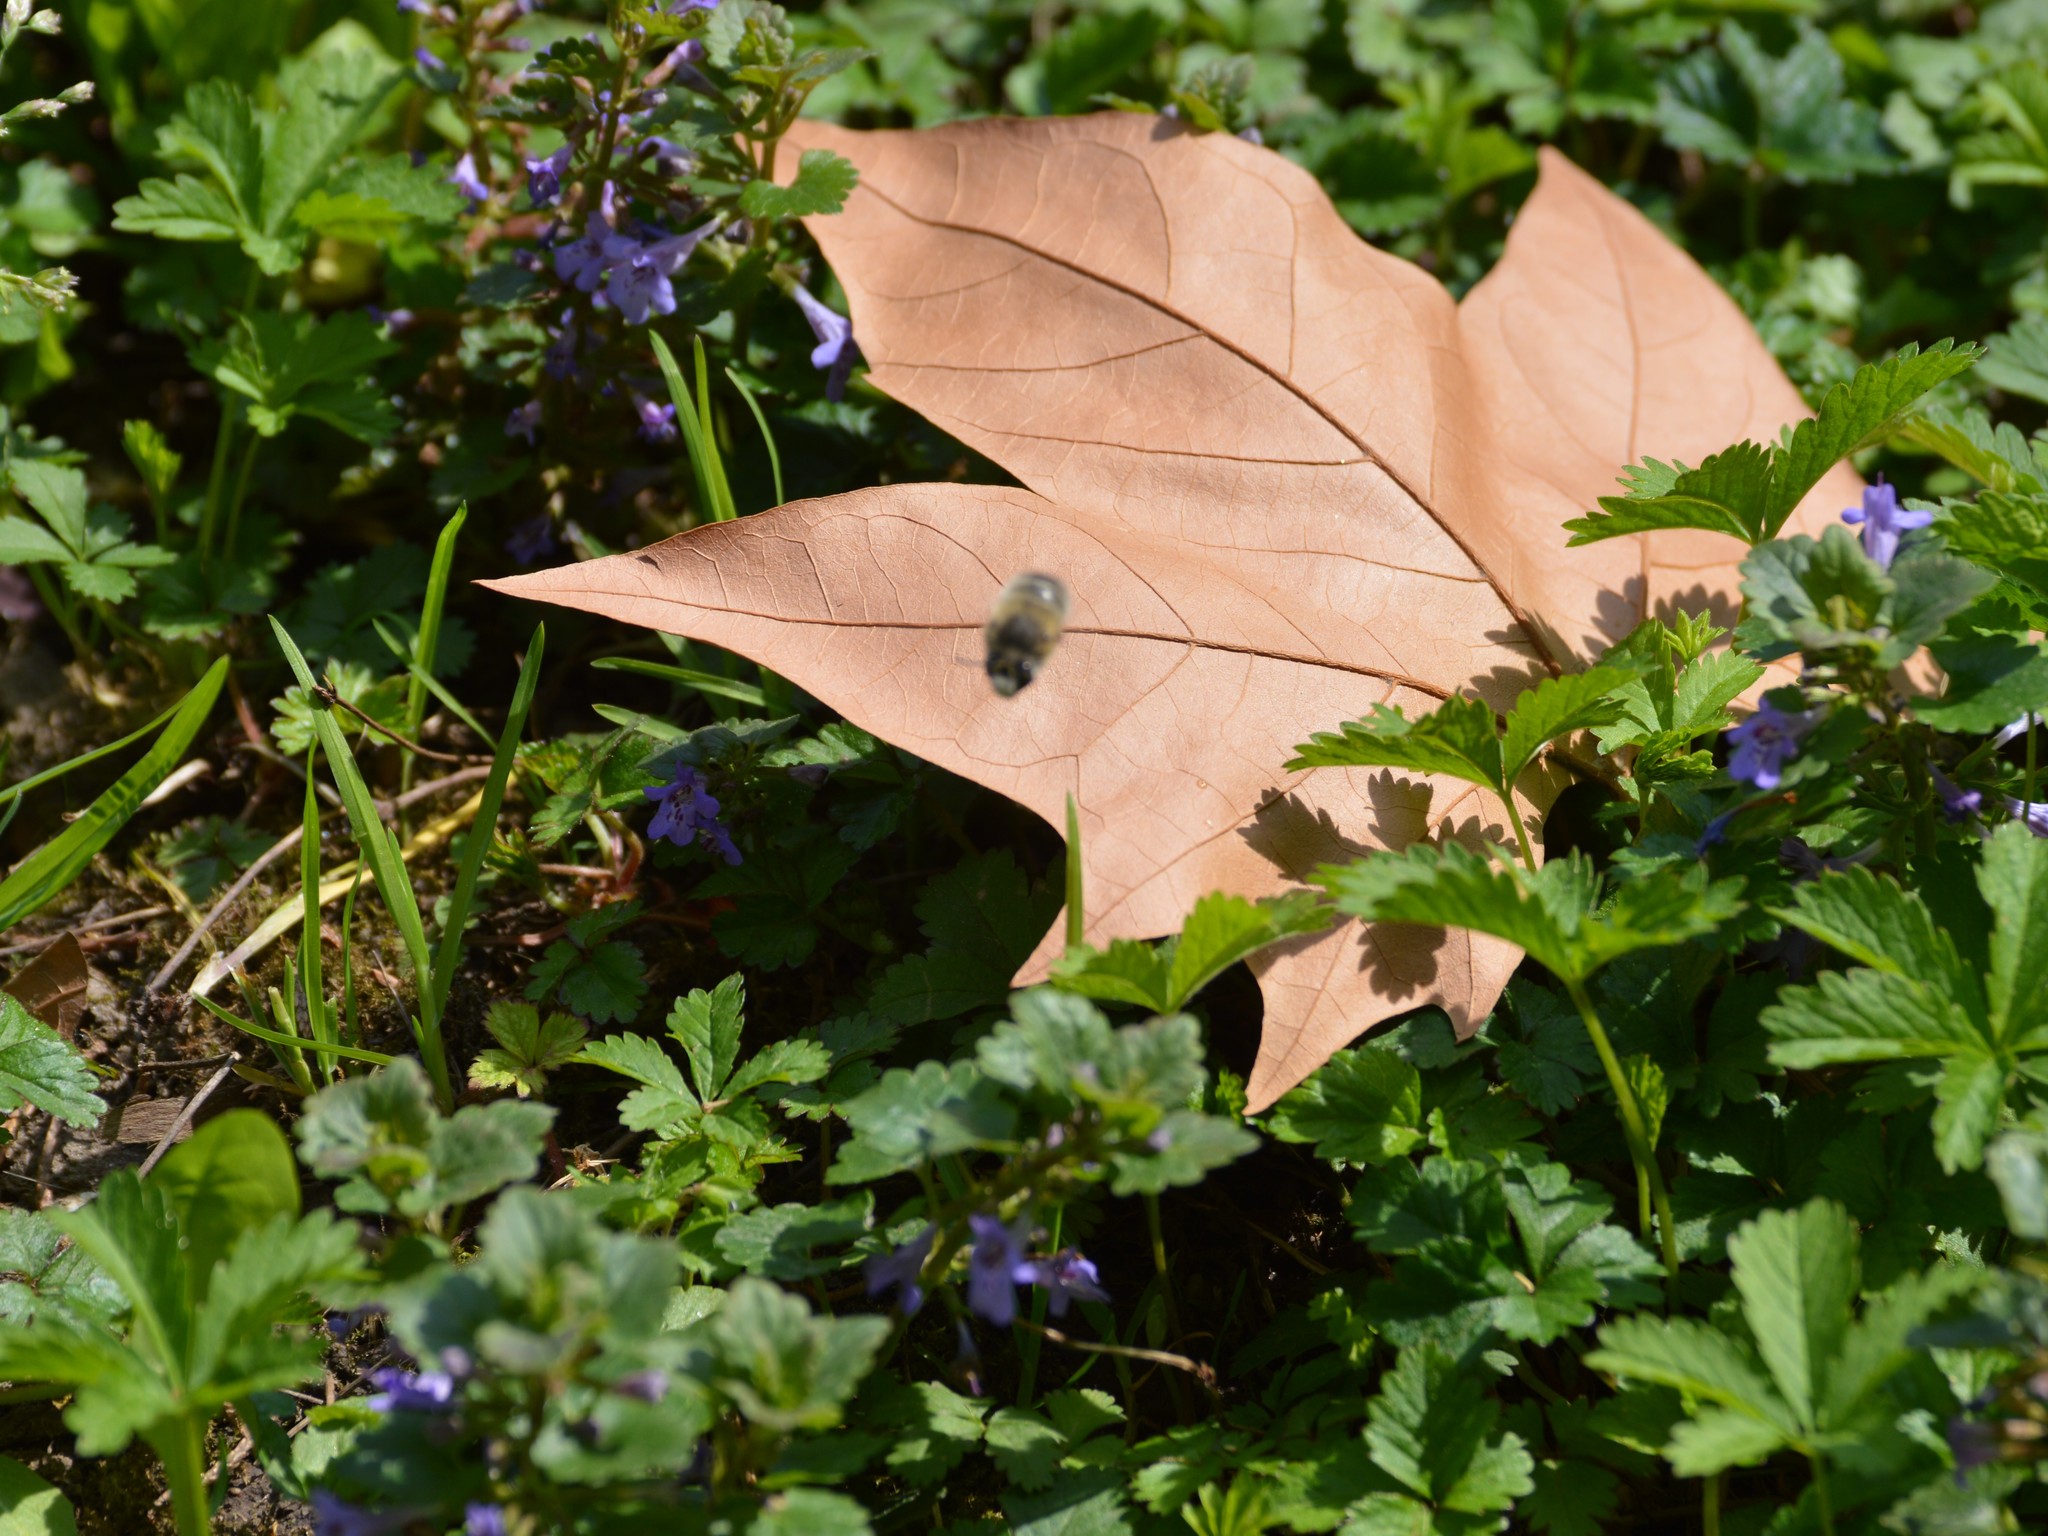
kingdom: Animalia
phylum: Arthropoda
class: Insecta
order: Hymenoptera
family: Apidae
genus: Anthophora
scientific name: Anthophora plumipes
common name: Hairy-footed flower bee
